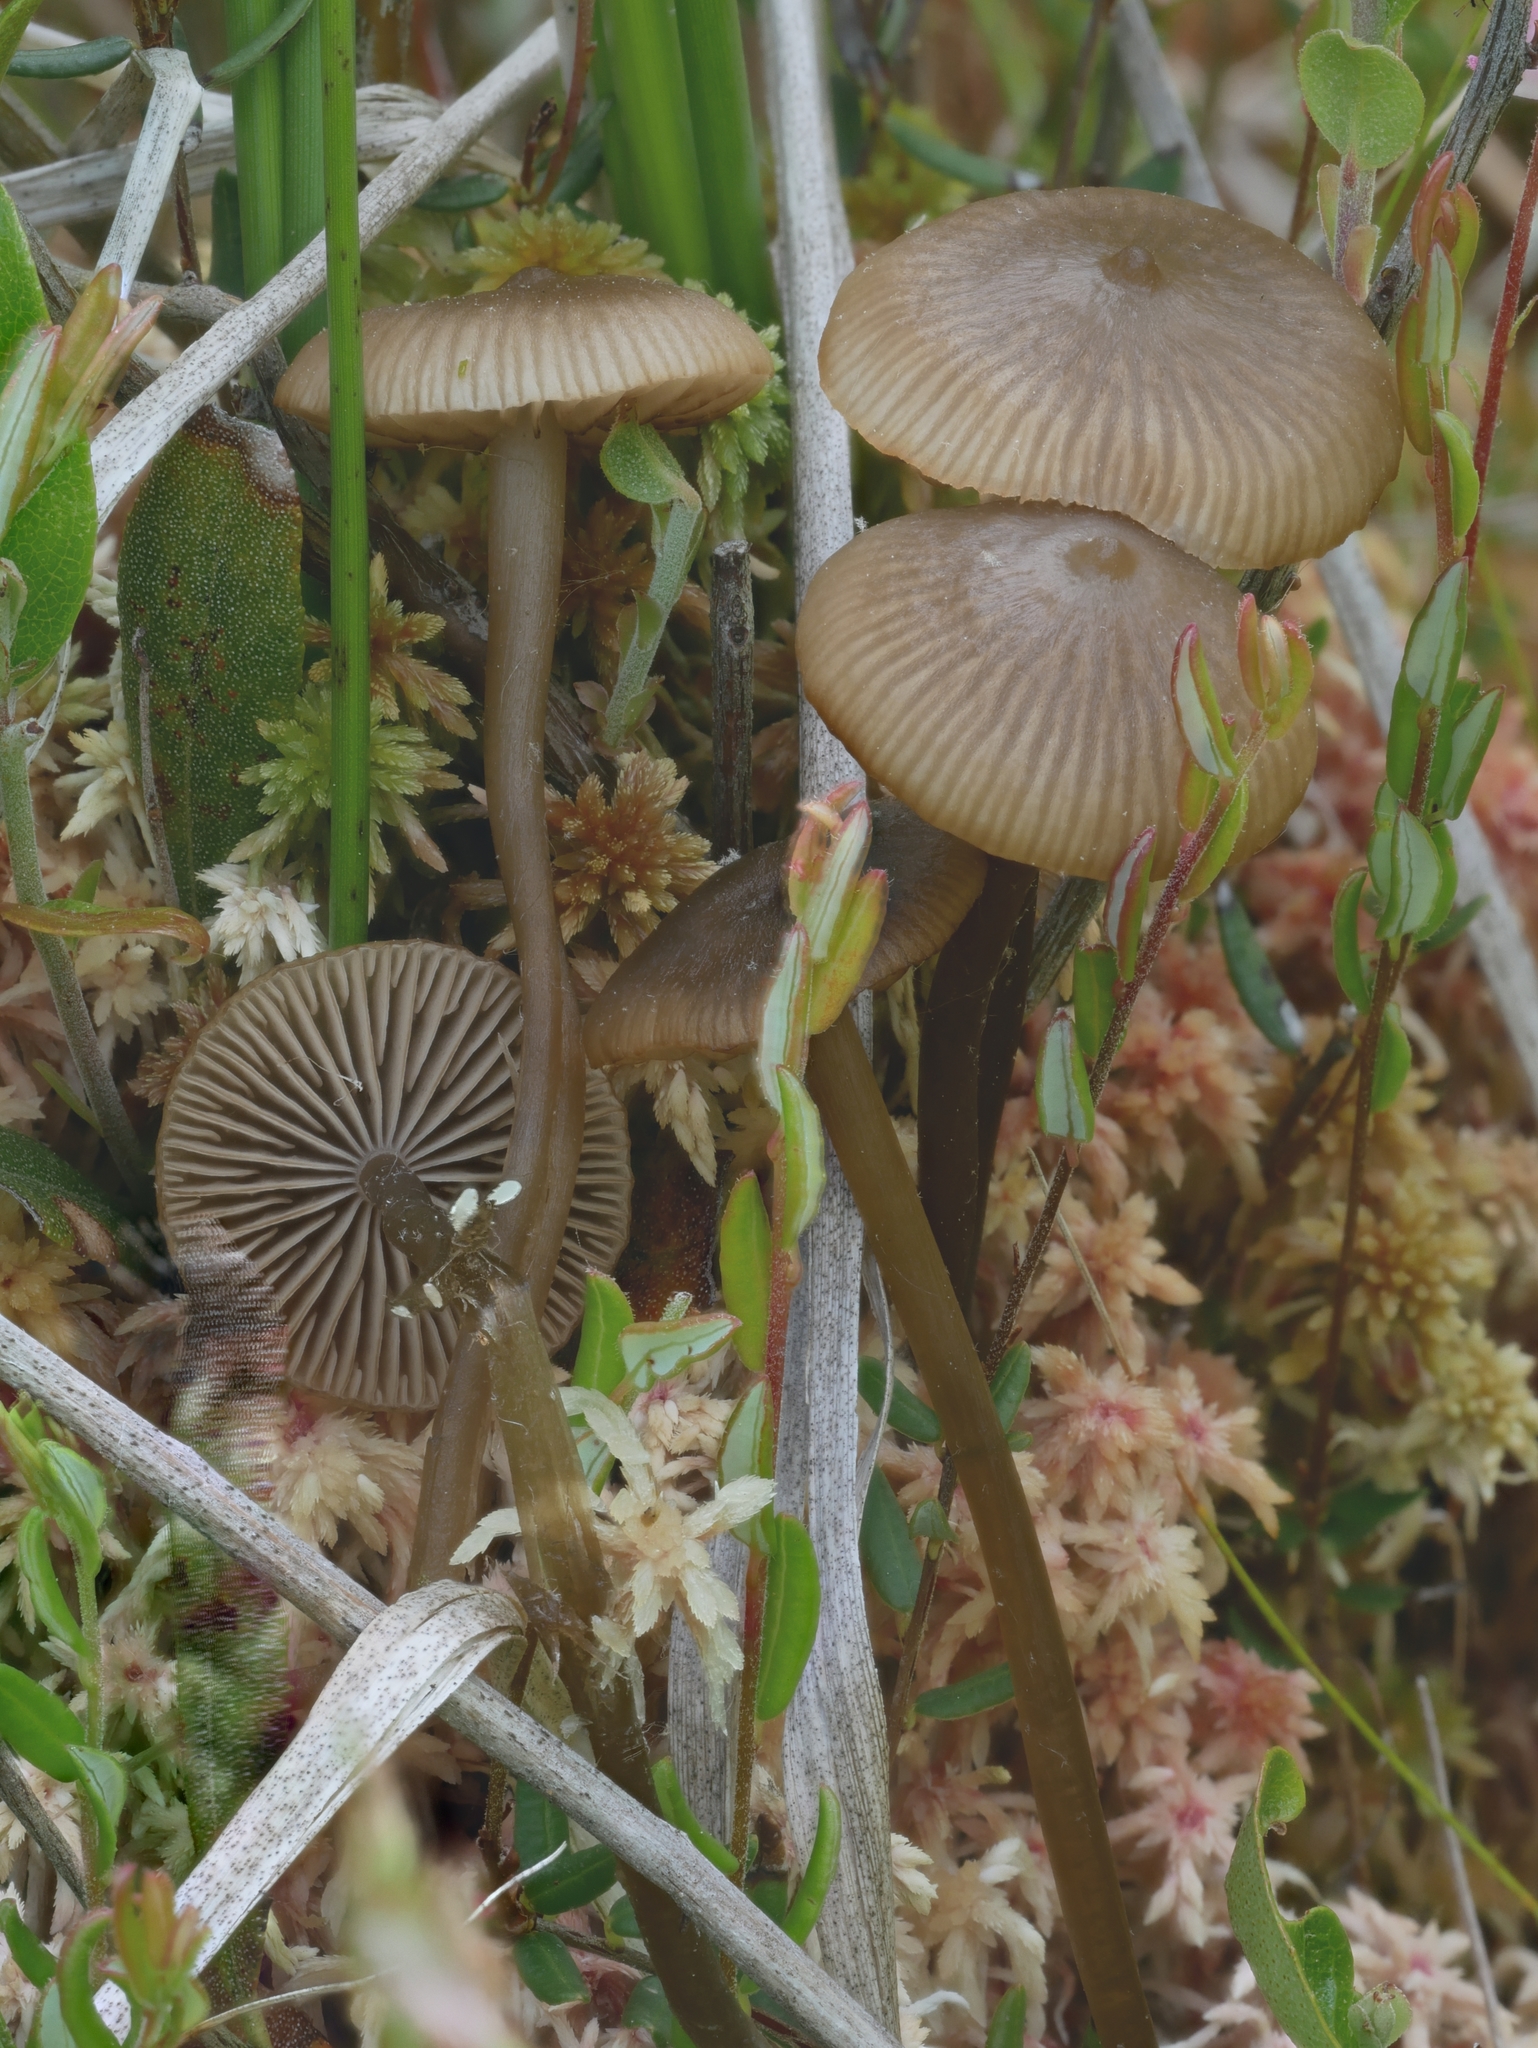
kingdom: Fungi
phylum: Basidiomycota
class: Agaricomycetes
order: Agaricales
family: Lyophyllaceae
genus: Sphagnurus
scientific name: Sphagnurus paluster
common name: Sphagnum greyling
